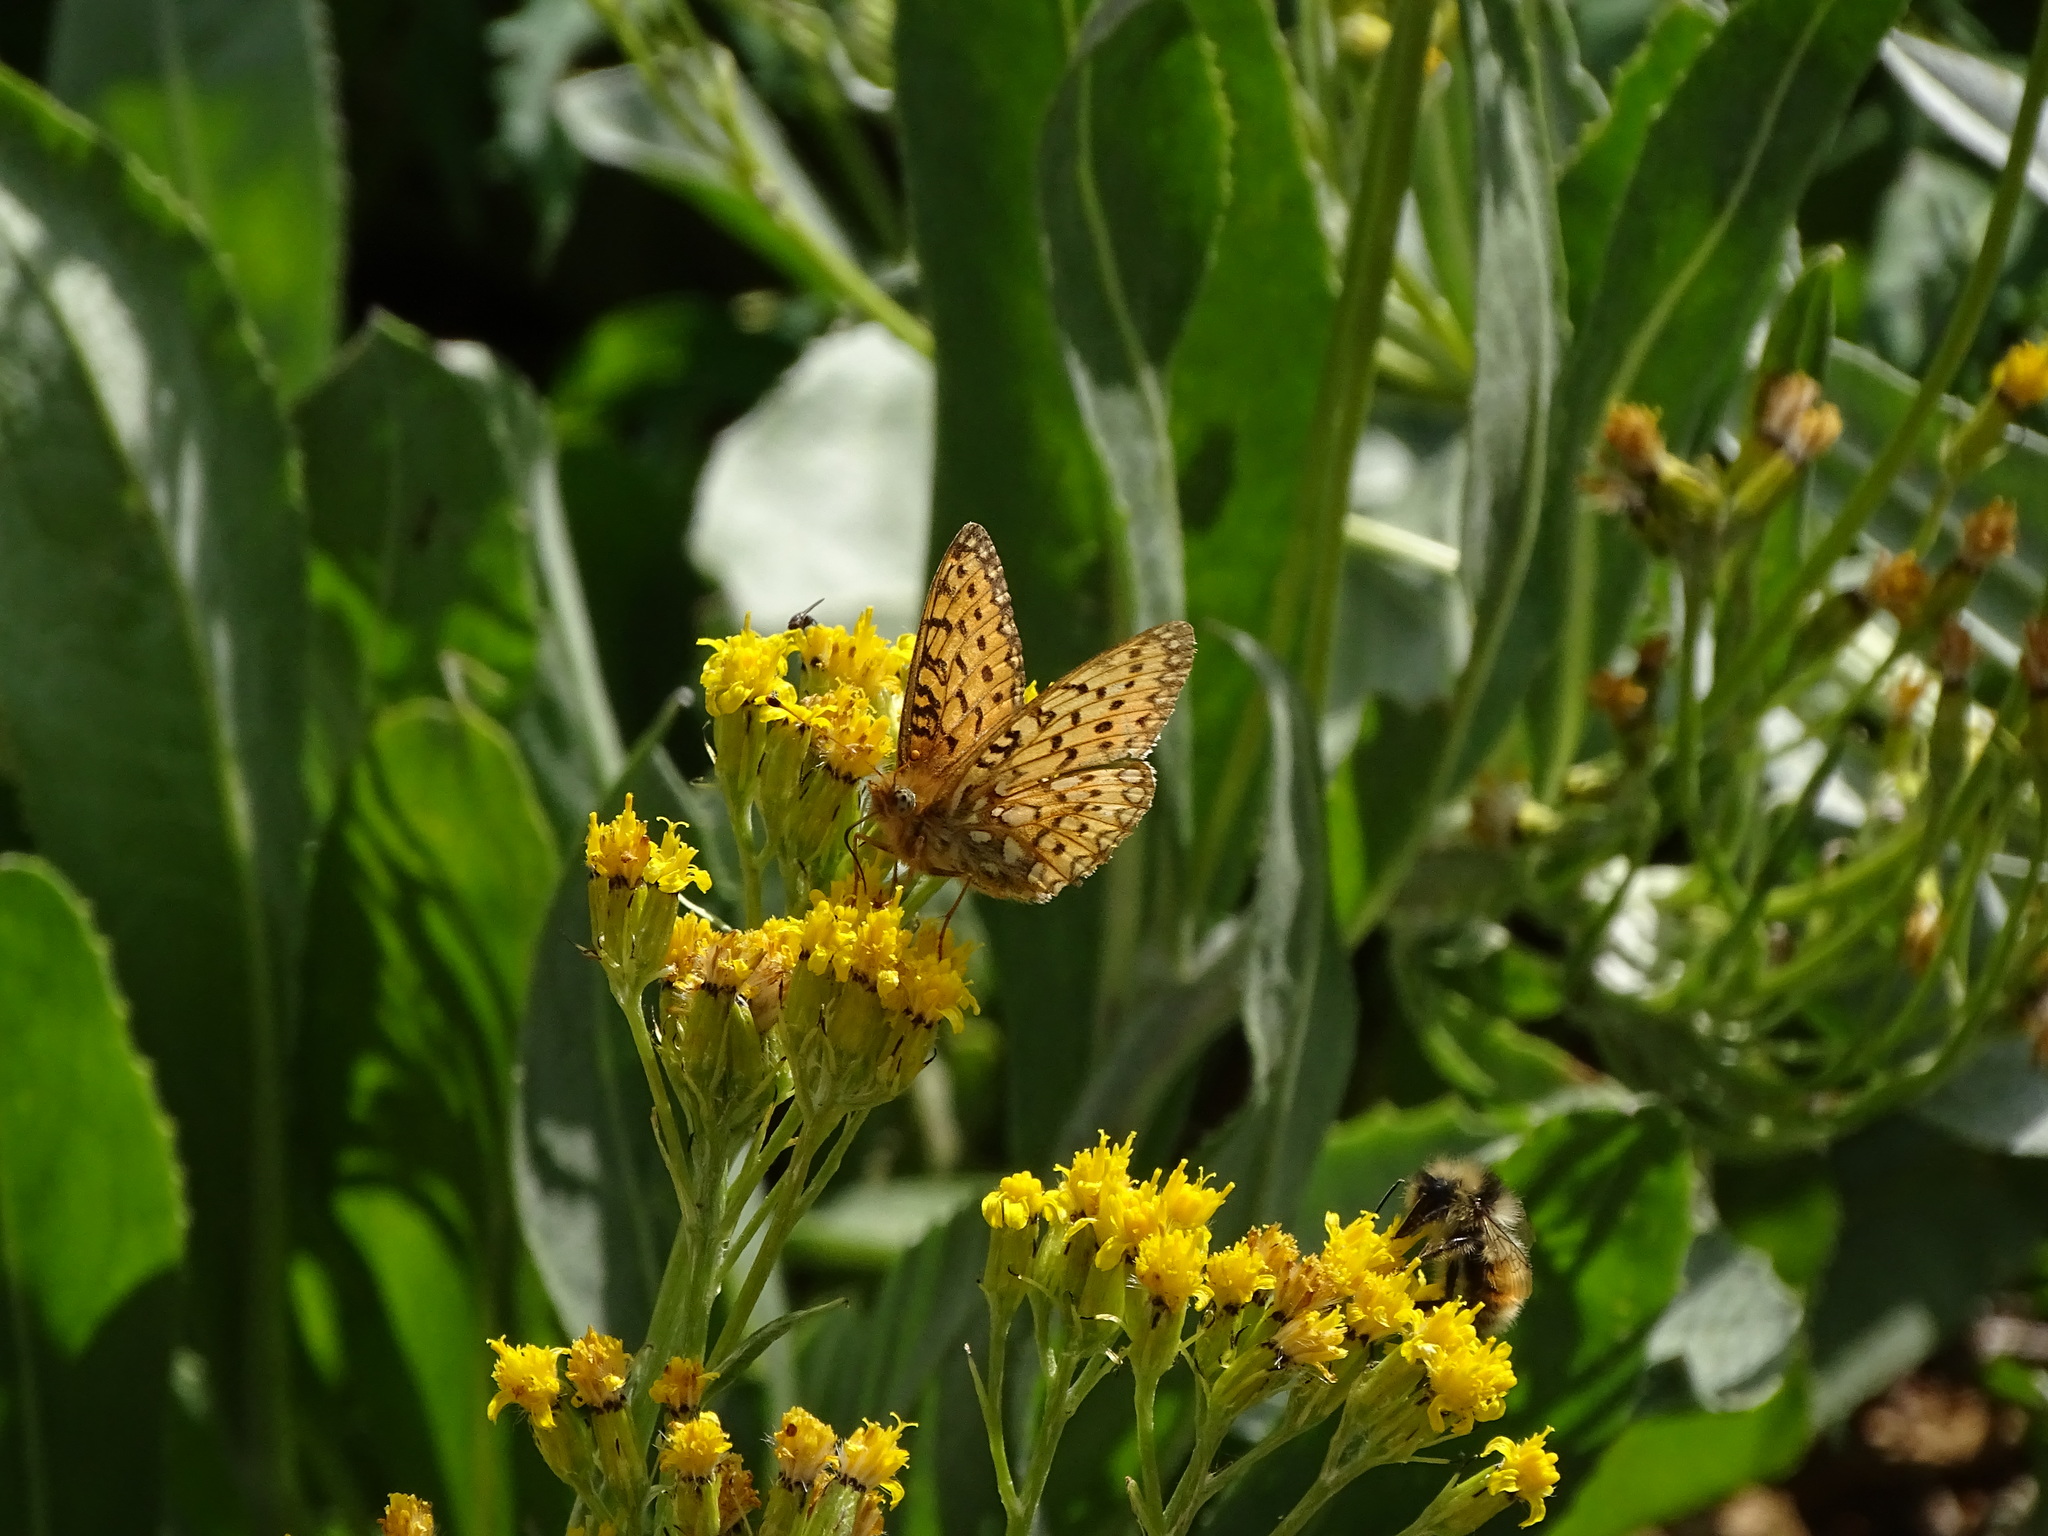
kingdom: Animalia
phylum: Arthropoda
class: Insecta
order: Lepidoptera
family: Nymphalidae
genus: Speyeria
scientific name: Speyeria mormonia
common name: Mormon fritillary
